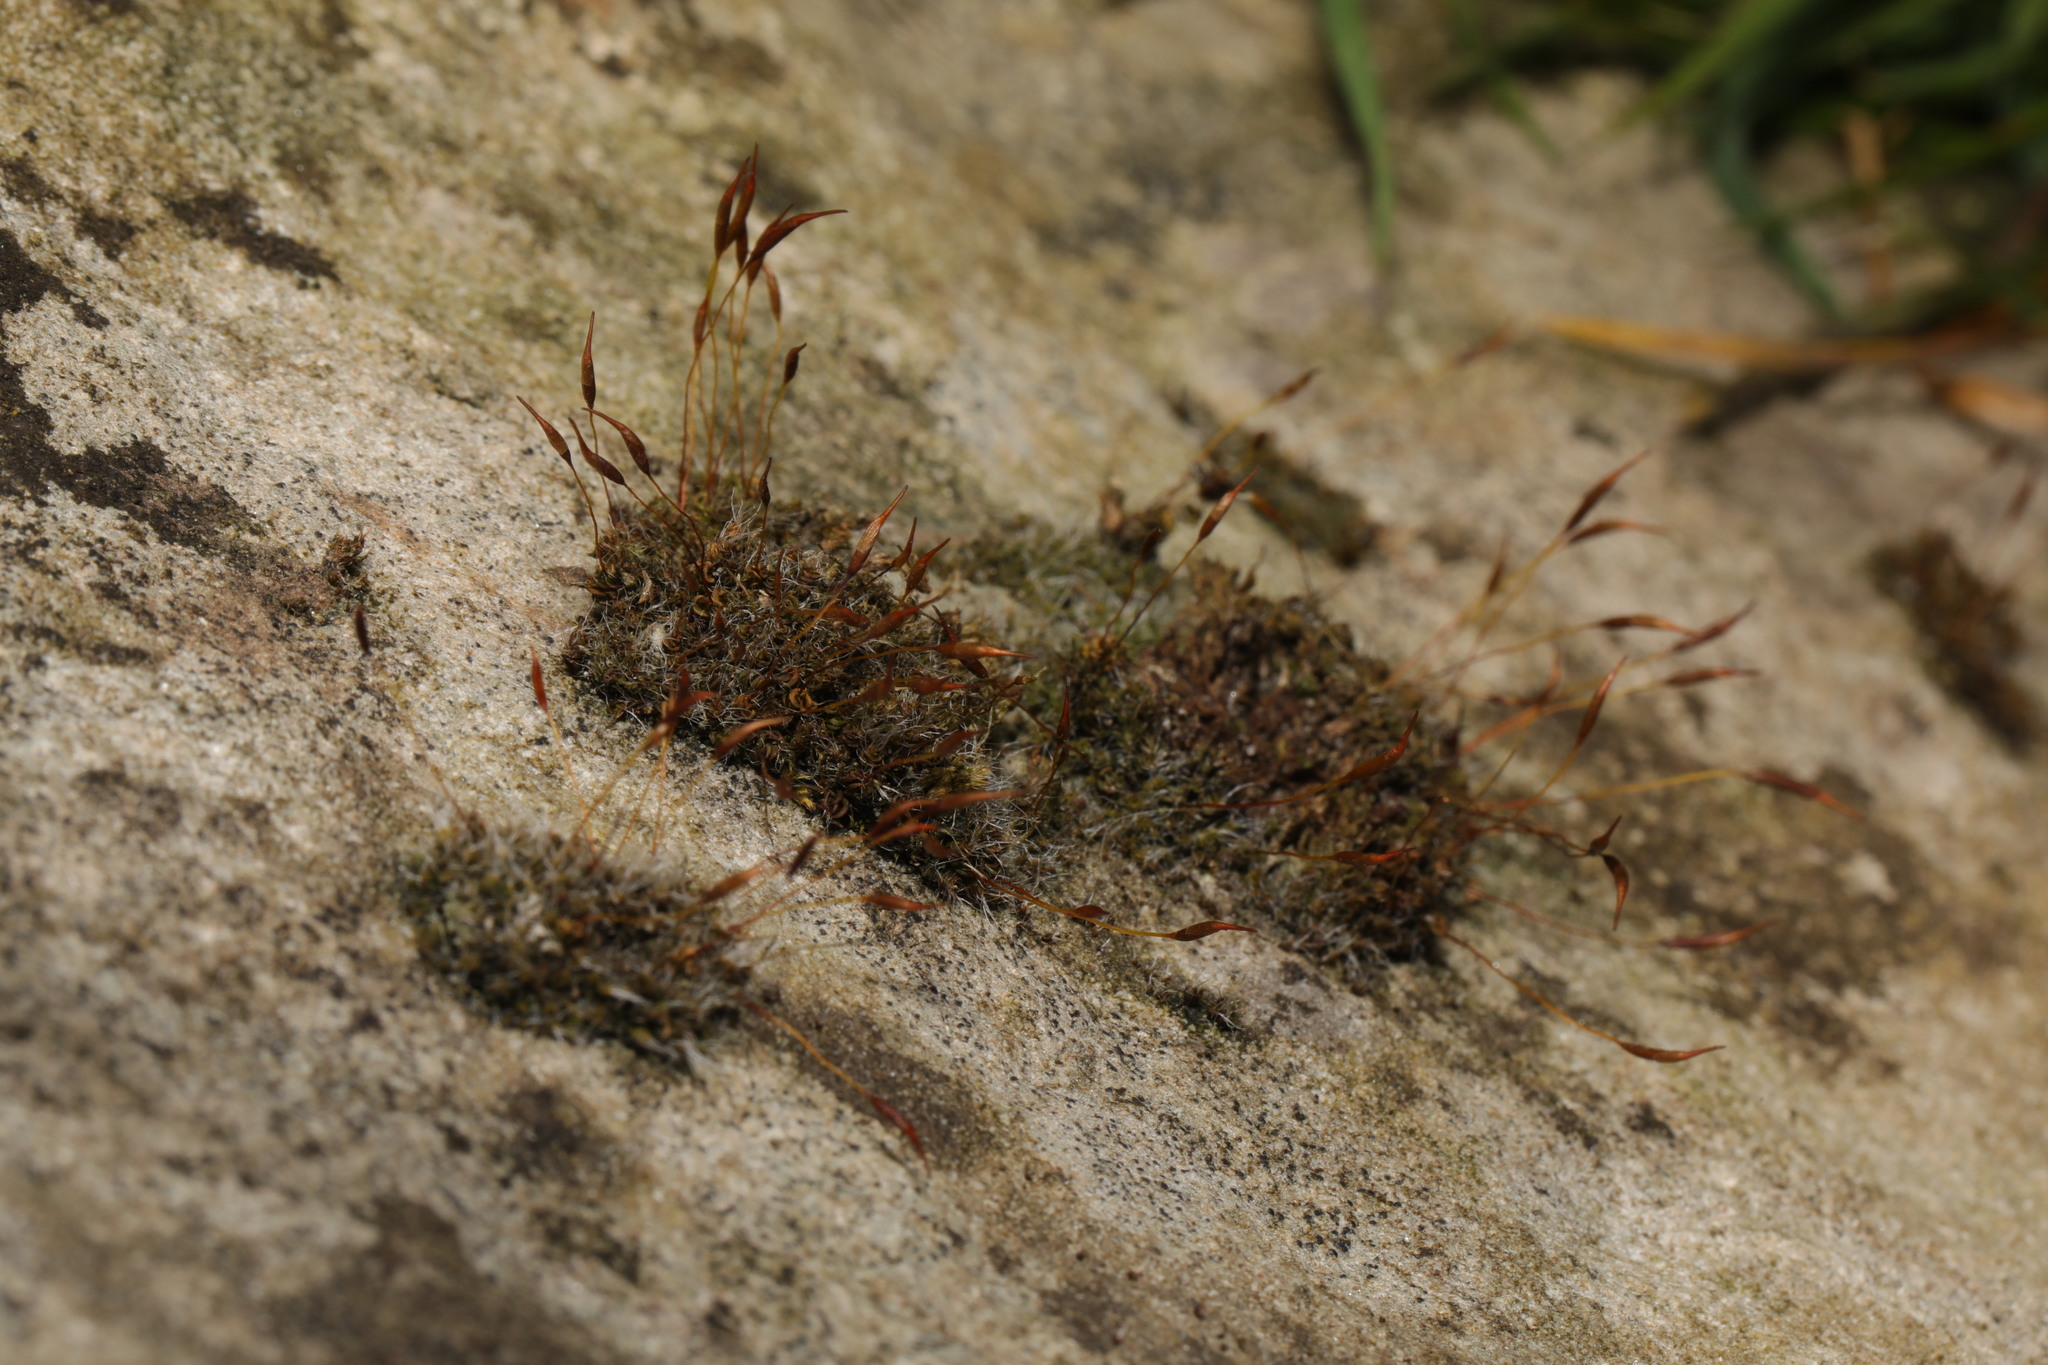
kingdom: Plantae
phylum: Bryophyta
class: Bryopsida
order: Pottiales
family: Pottiaceae
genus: Tortula
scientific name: Tortula muralis
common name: Wall screw-moss
